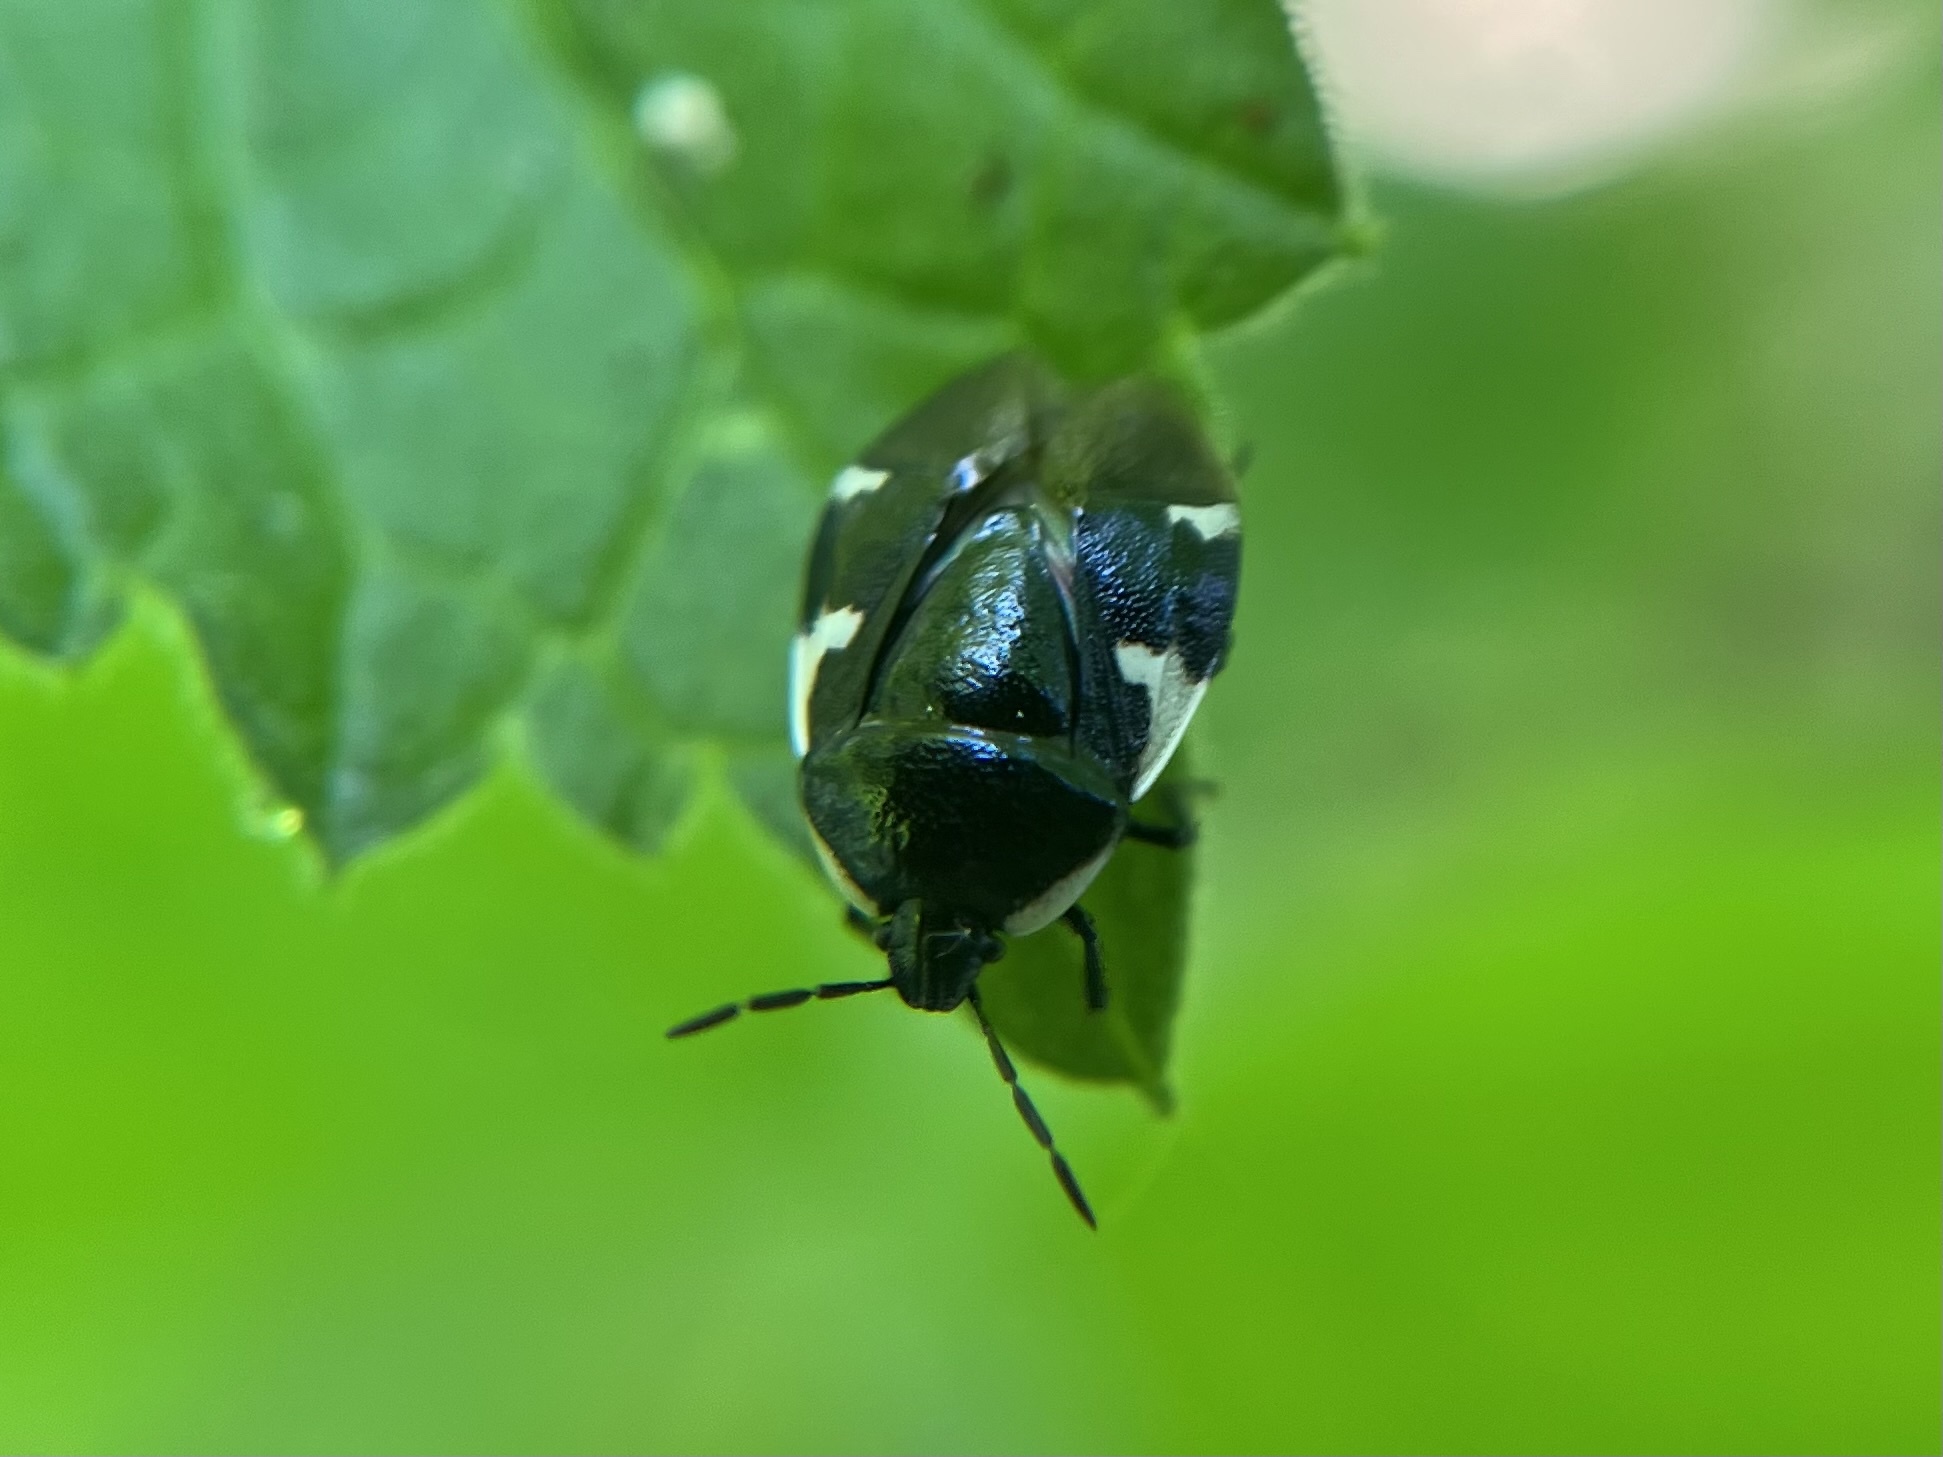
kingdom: Animalia
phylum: Arthropoda
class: Insecta
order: Hemiptera
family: Cydnidae
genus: Tritomegas
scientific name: Tritomegas sexmaculatus
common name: Rambur's pied shieldbug
